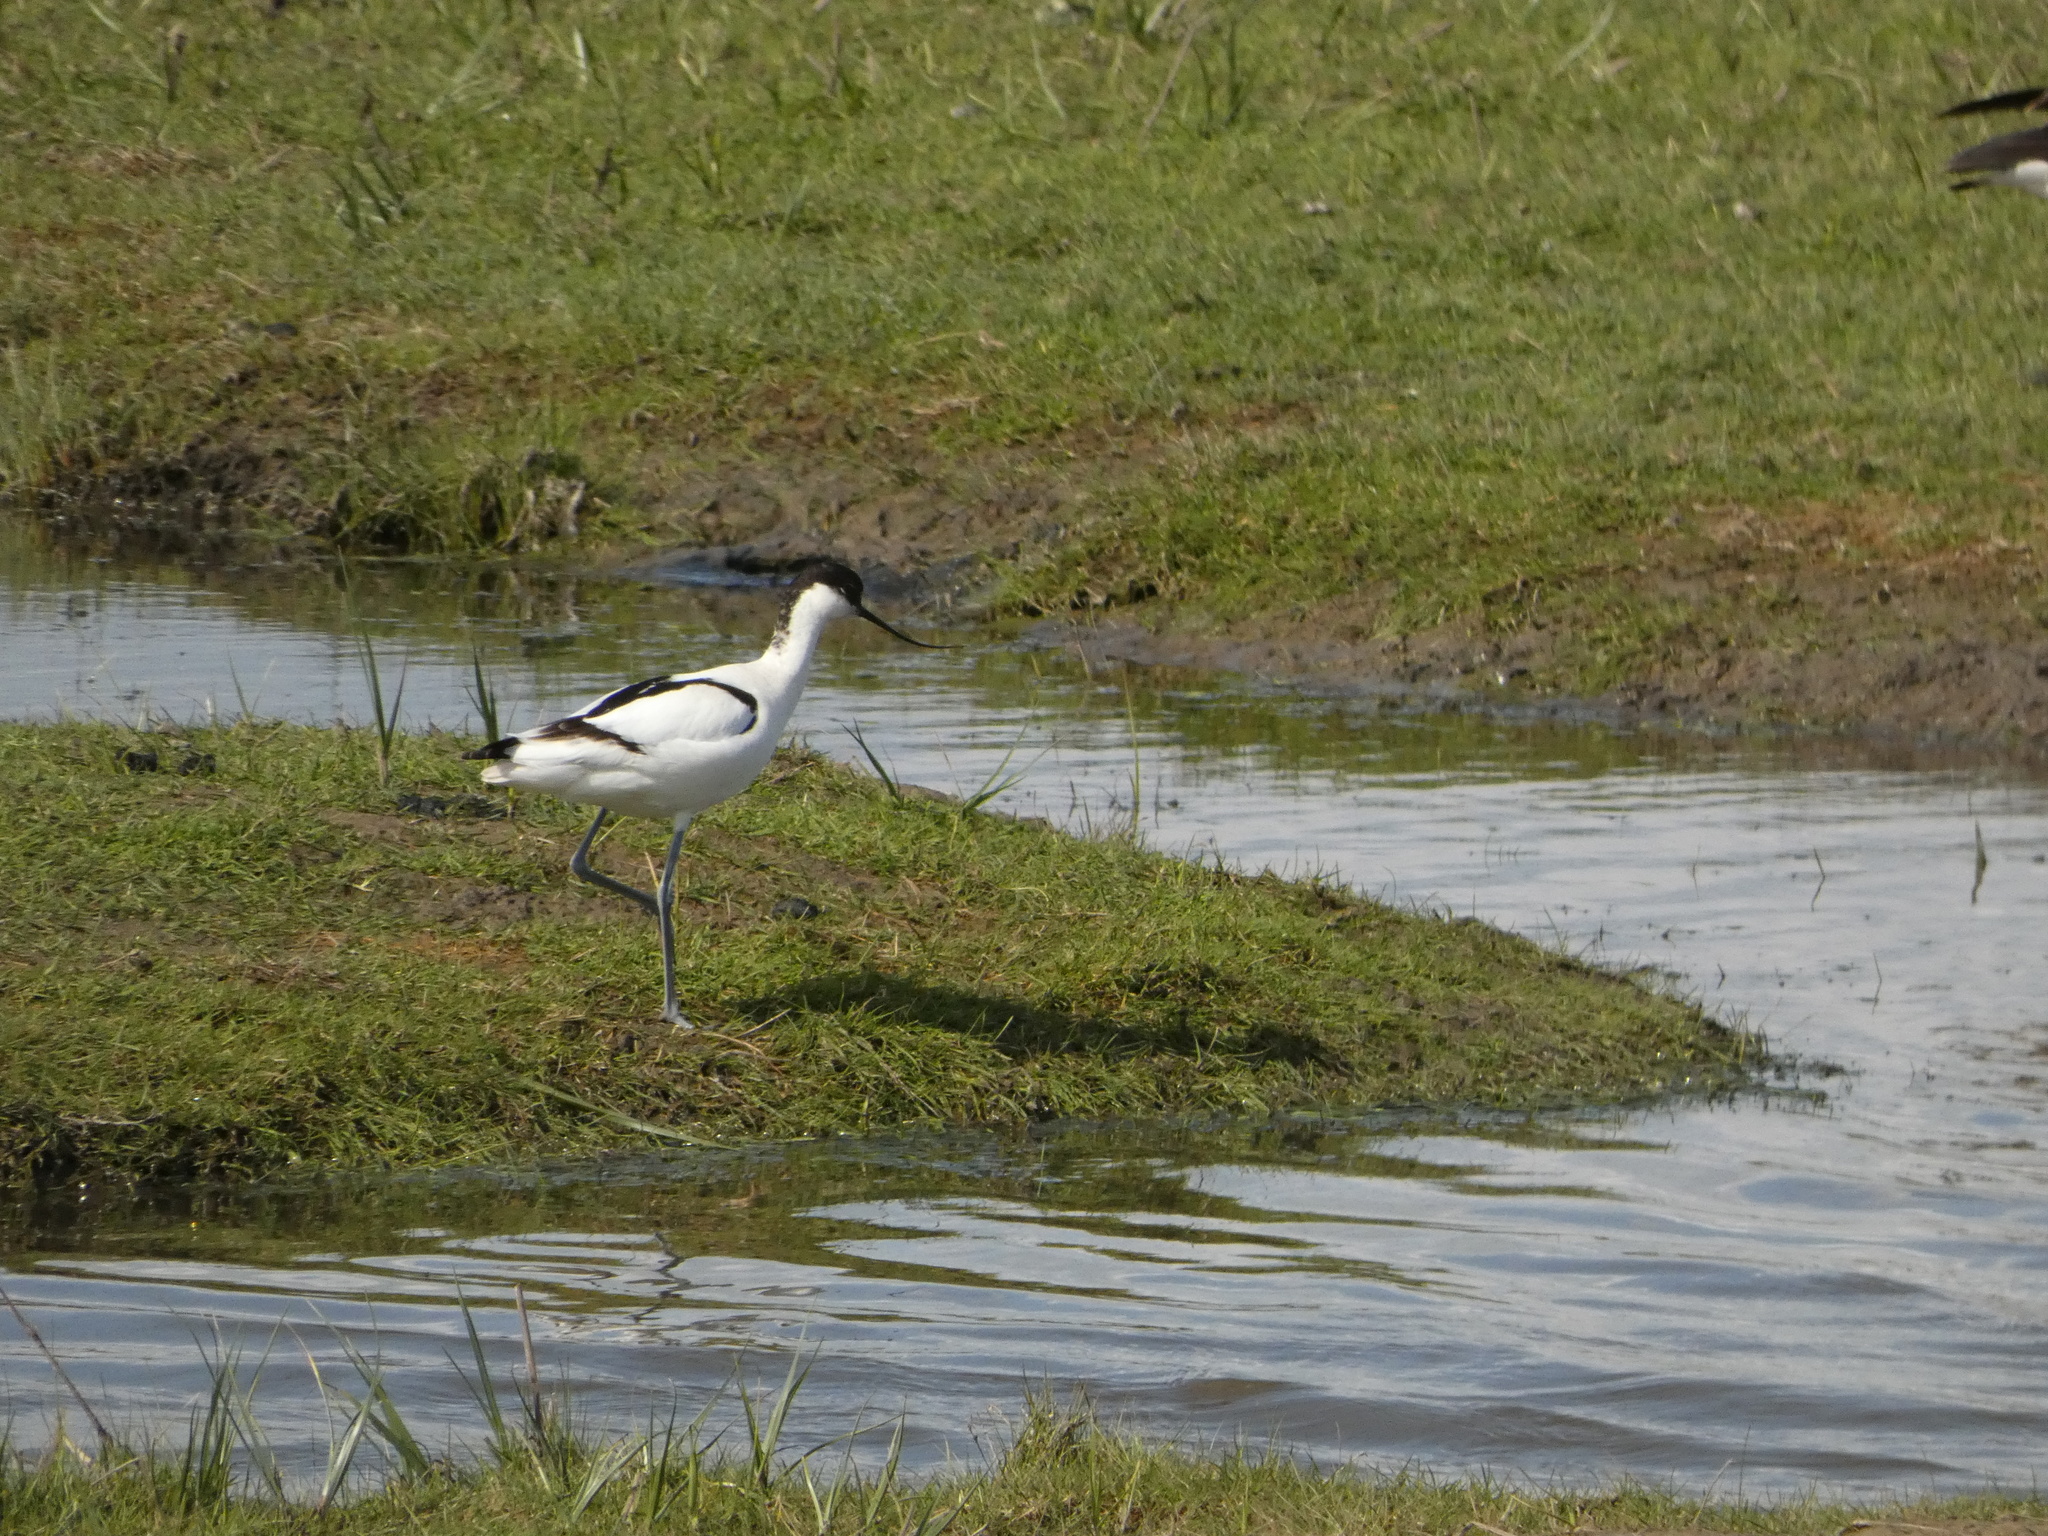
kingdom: Animalia
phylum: Chordata
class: Aves
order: Charadriiformes
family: Recurvirostridae
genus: Recurvirostra
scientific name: Recurvirostra avosetta
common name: Pied avocet
